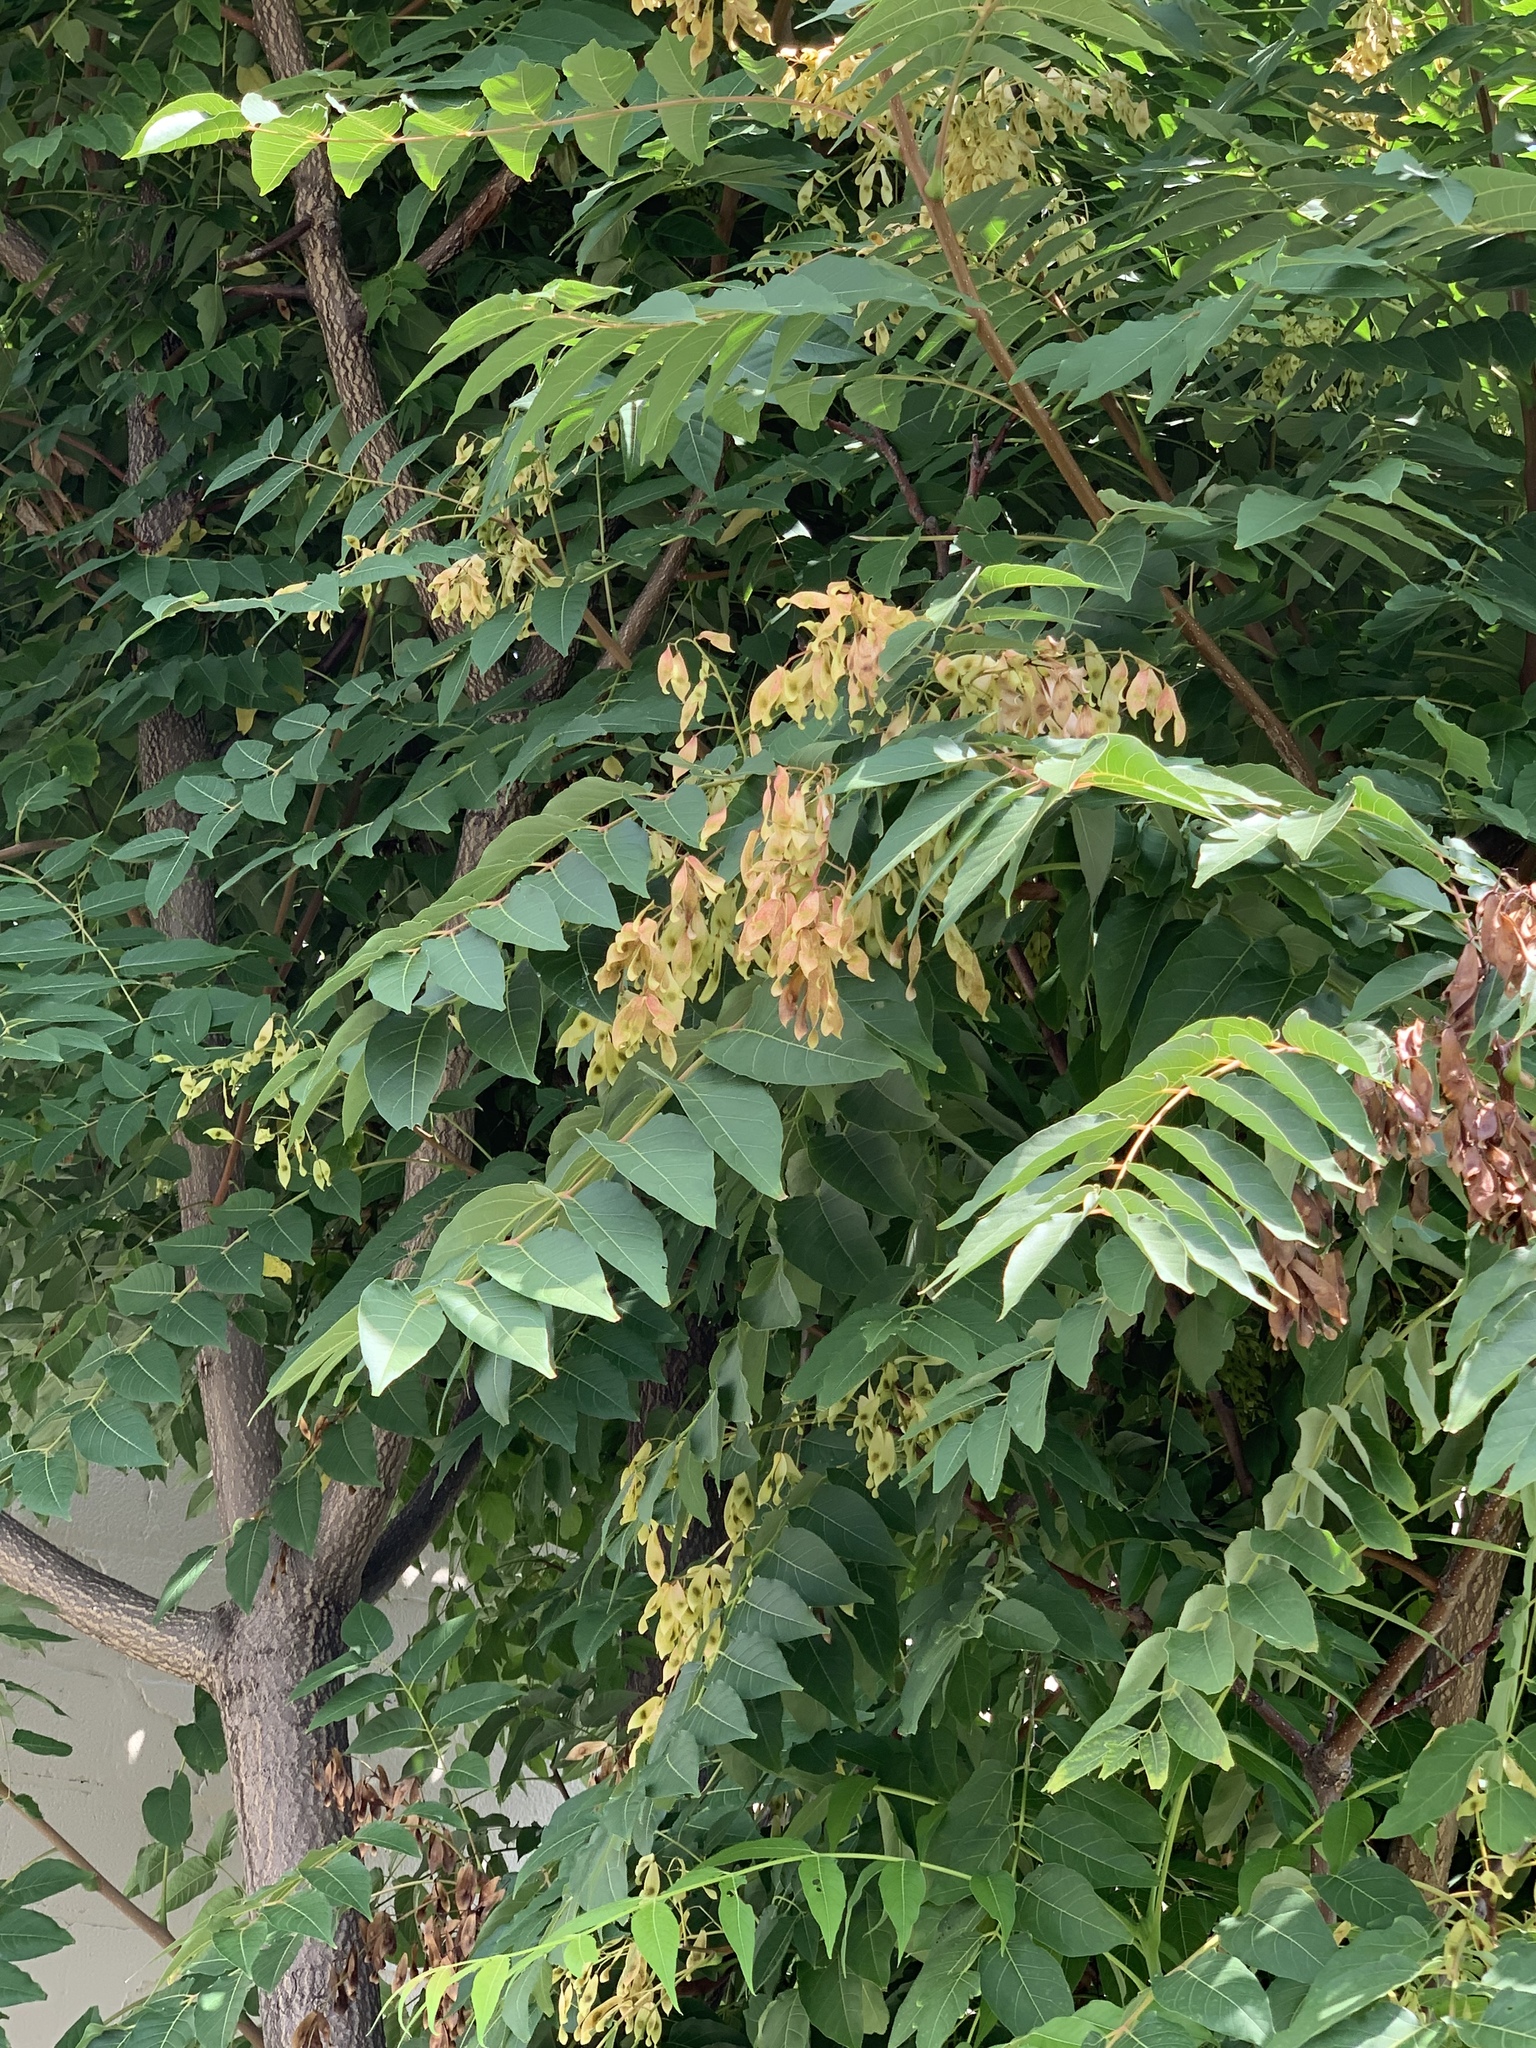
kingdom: Plantae
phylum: Tracheophyta
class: Magnoliopsida
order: Sapindales
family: Simaroubaceae
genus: Ailanthus
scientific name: Ailanthus altissima
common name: Tree-of-heaven
